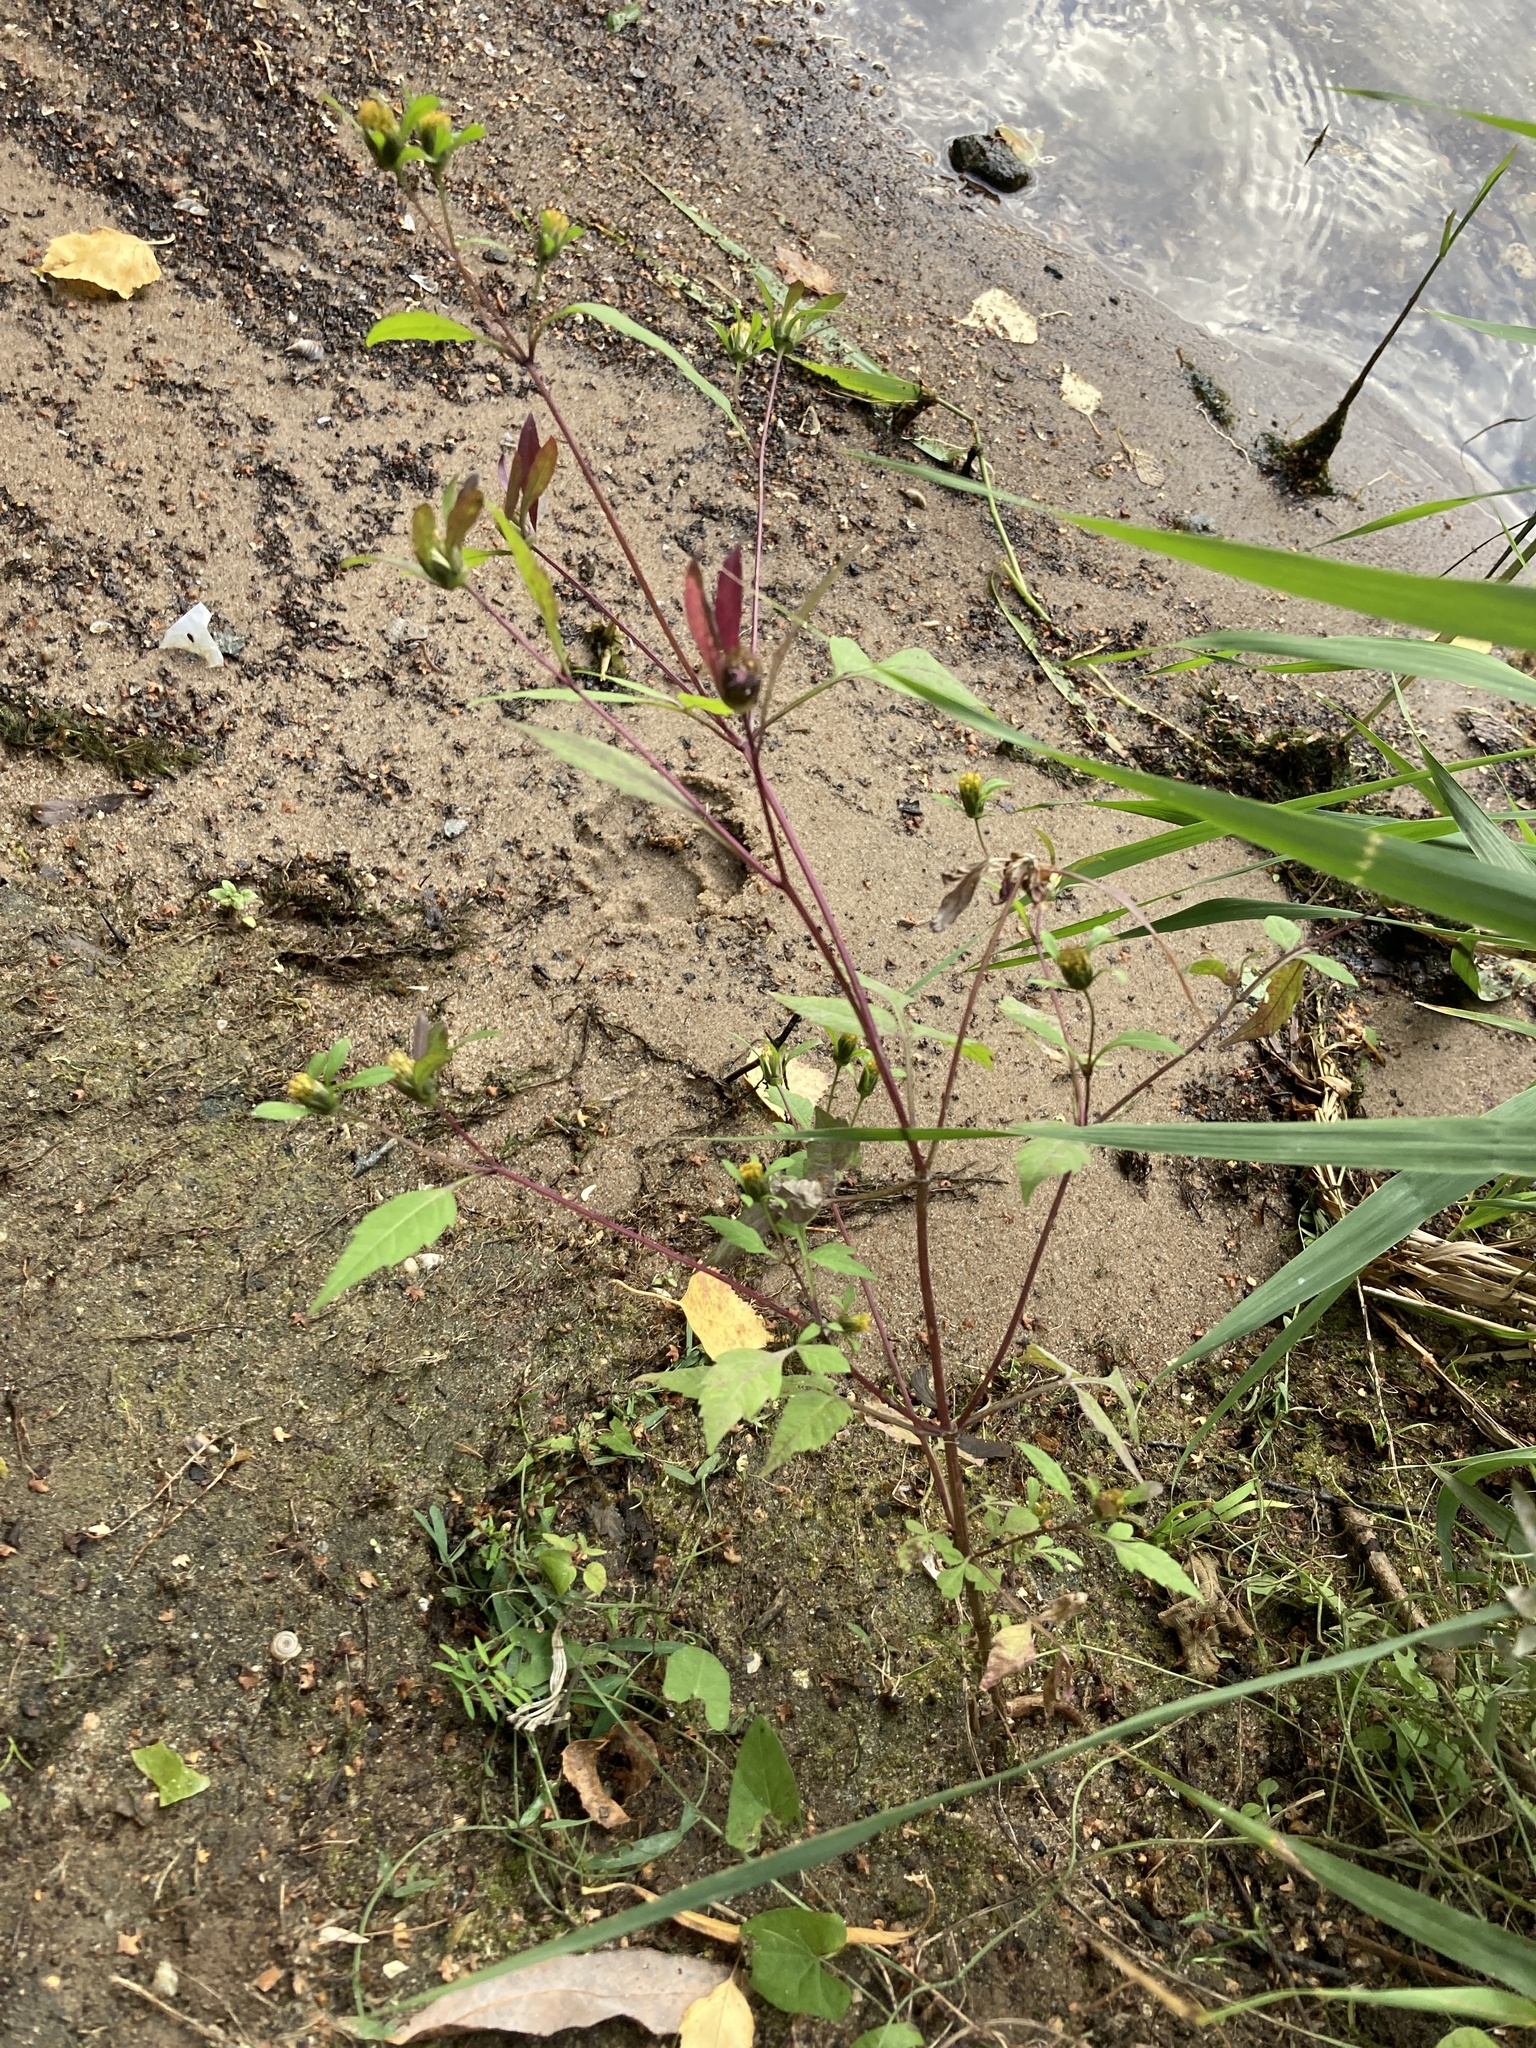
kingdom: Plantae
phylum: Tracheophyta
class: Magnoliopsida
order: Asterales
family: Asteraceae
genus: Bidens
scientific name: Bidens frondosa
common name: Beggarticks
